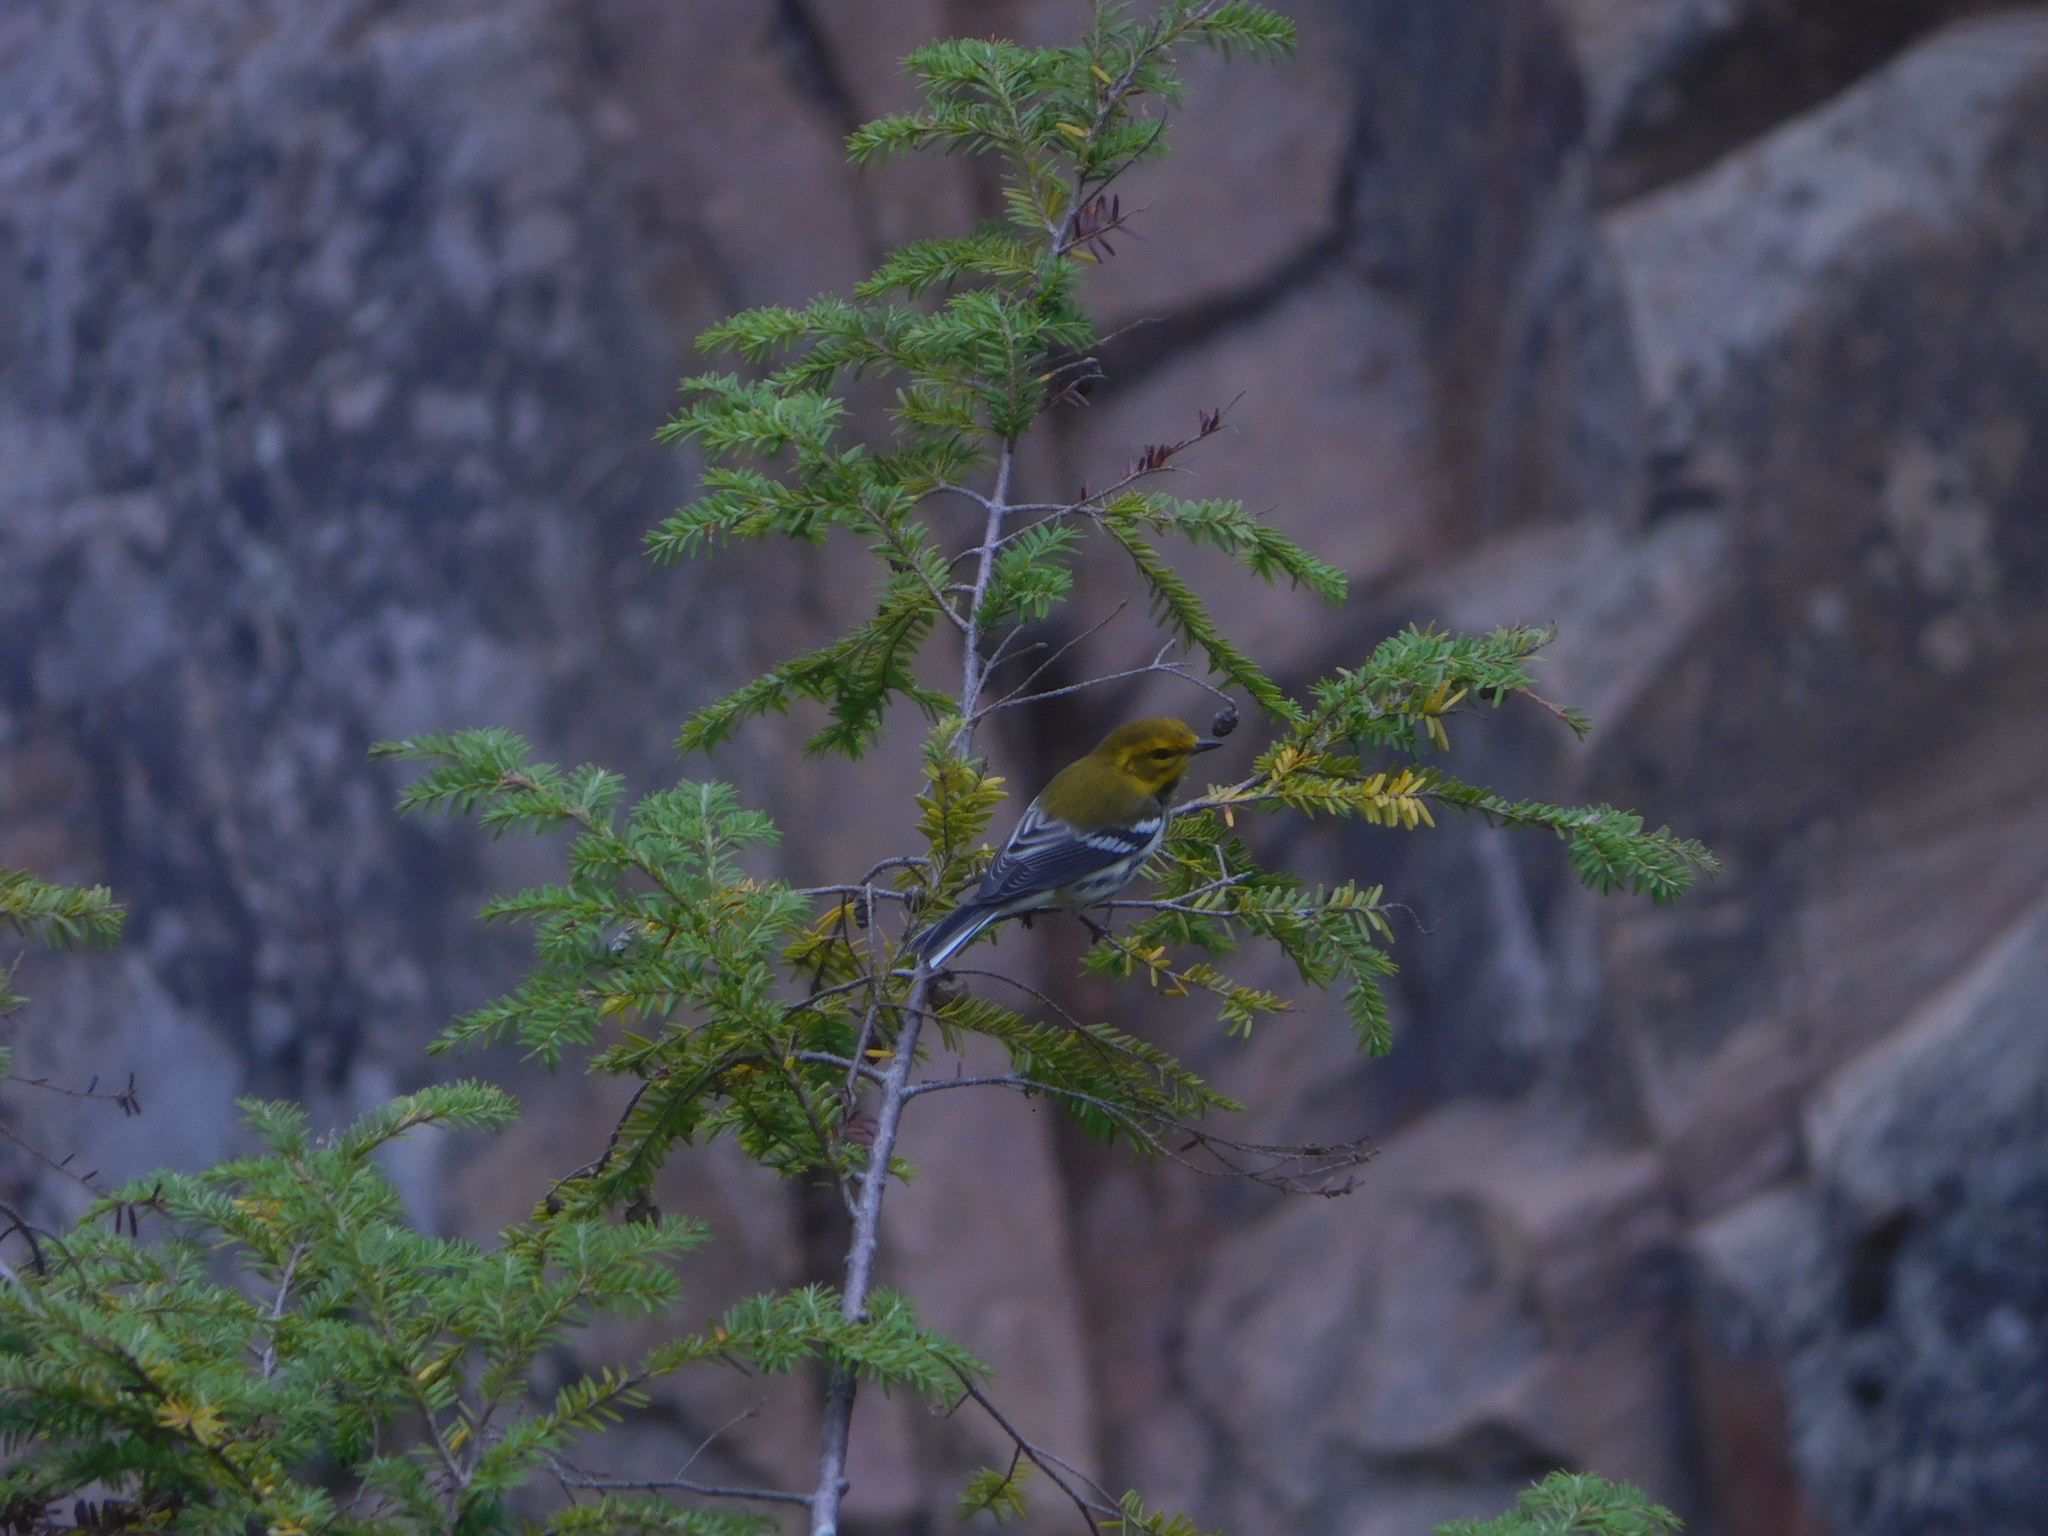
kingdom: Animalia
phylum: Chordata
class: Aves
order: Passeriformes
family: Parulidae
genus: Setophaga
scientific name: Setophaga virens
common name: Black-throated green warbler
